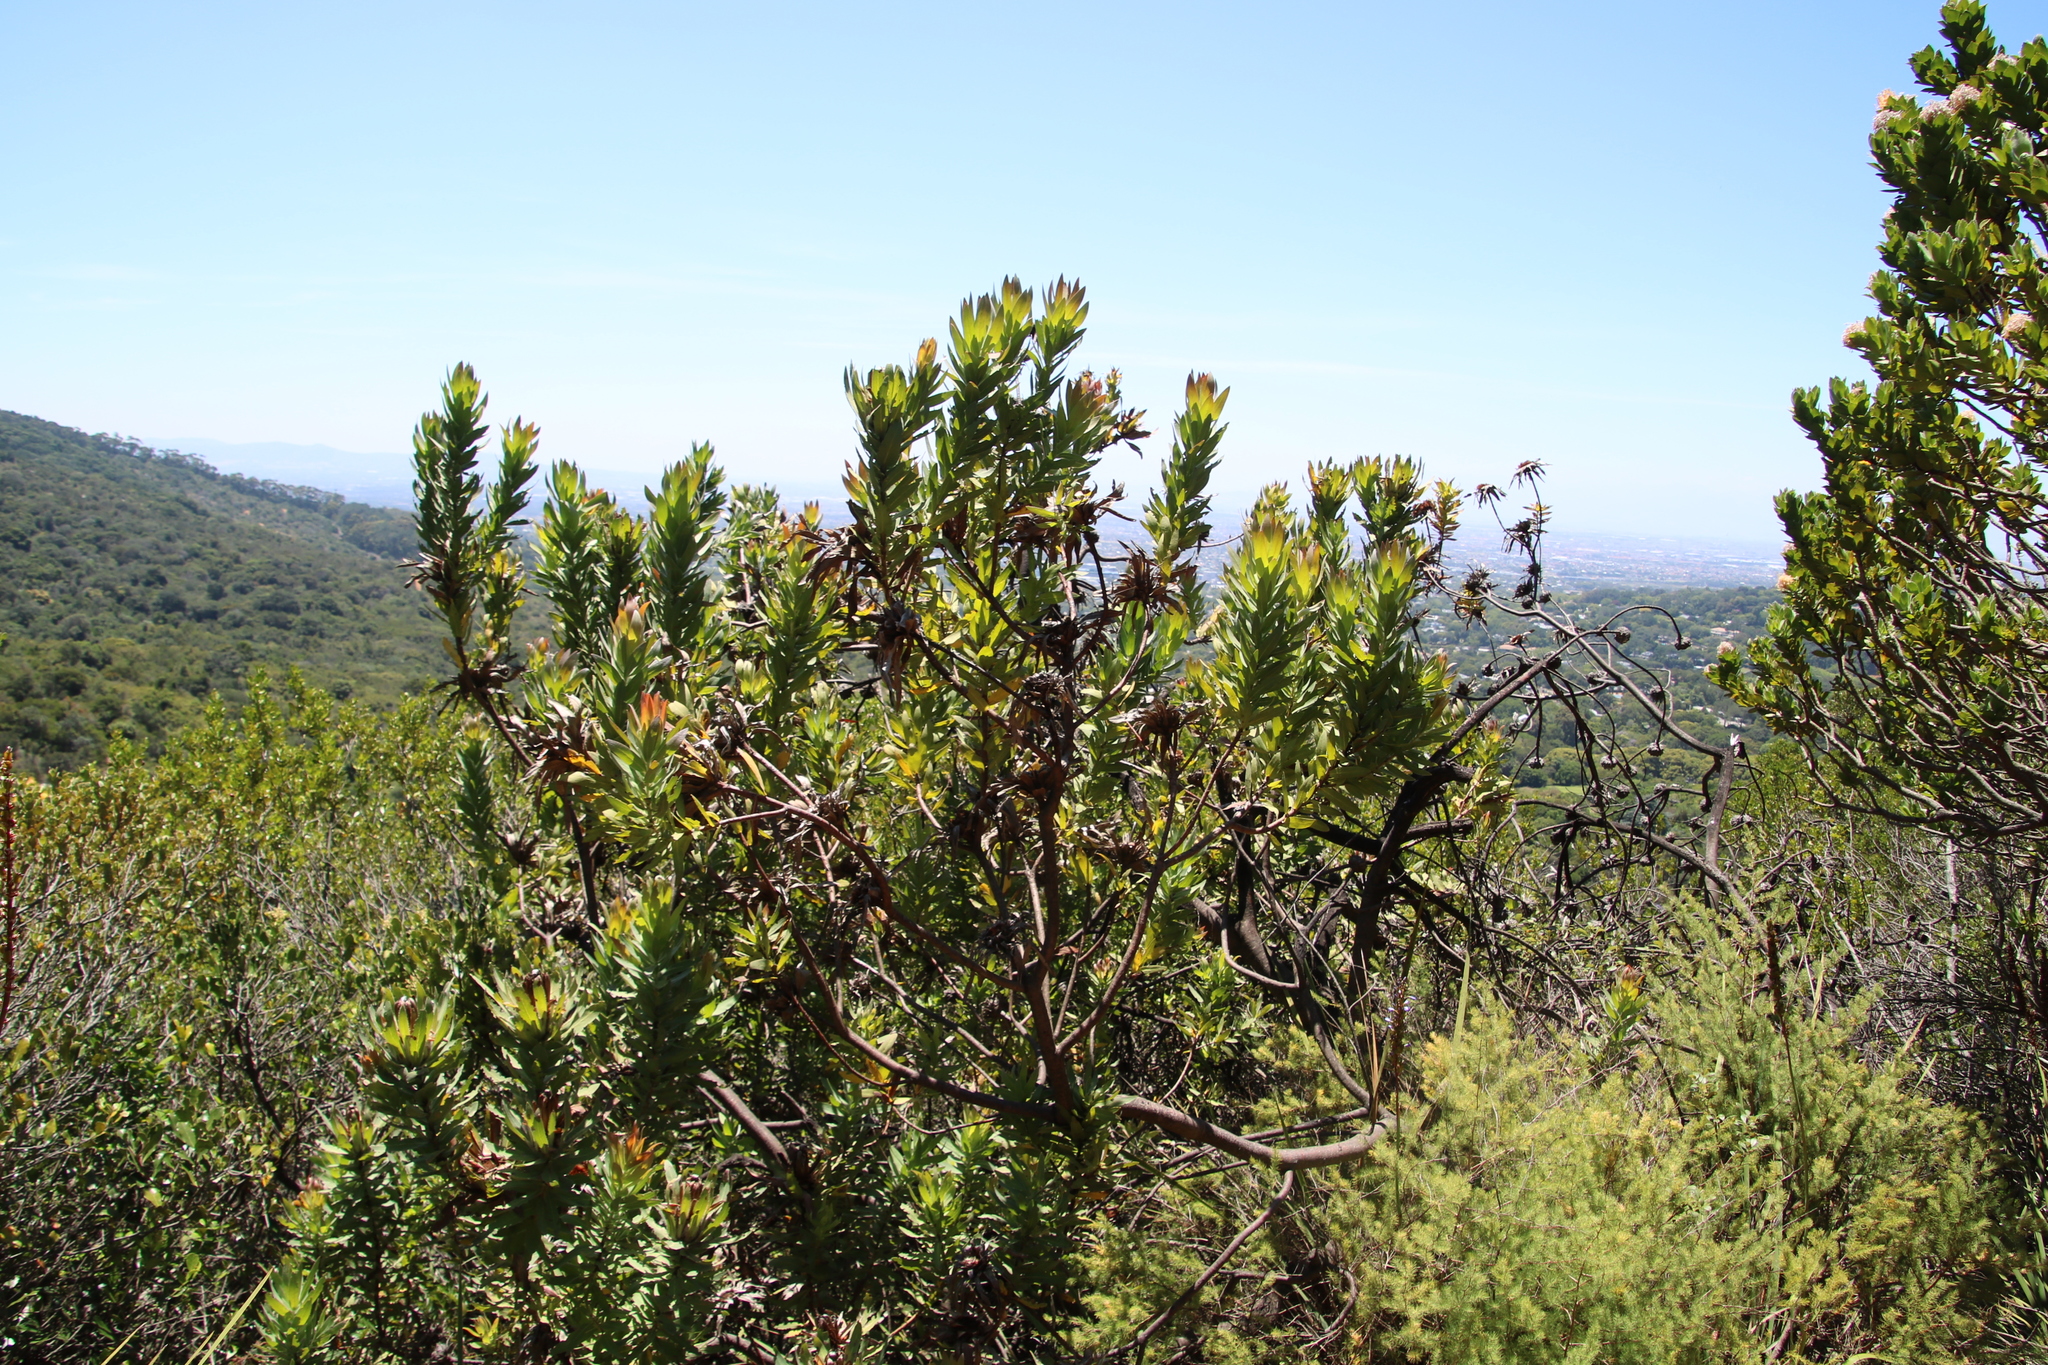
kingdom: Plantae
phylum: Tracheophyta
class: Magnoliopsida
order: Proteales
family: Proteaceae
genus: Protea
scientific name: Protea coronata
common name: Green sugarbush
